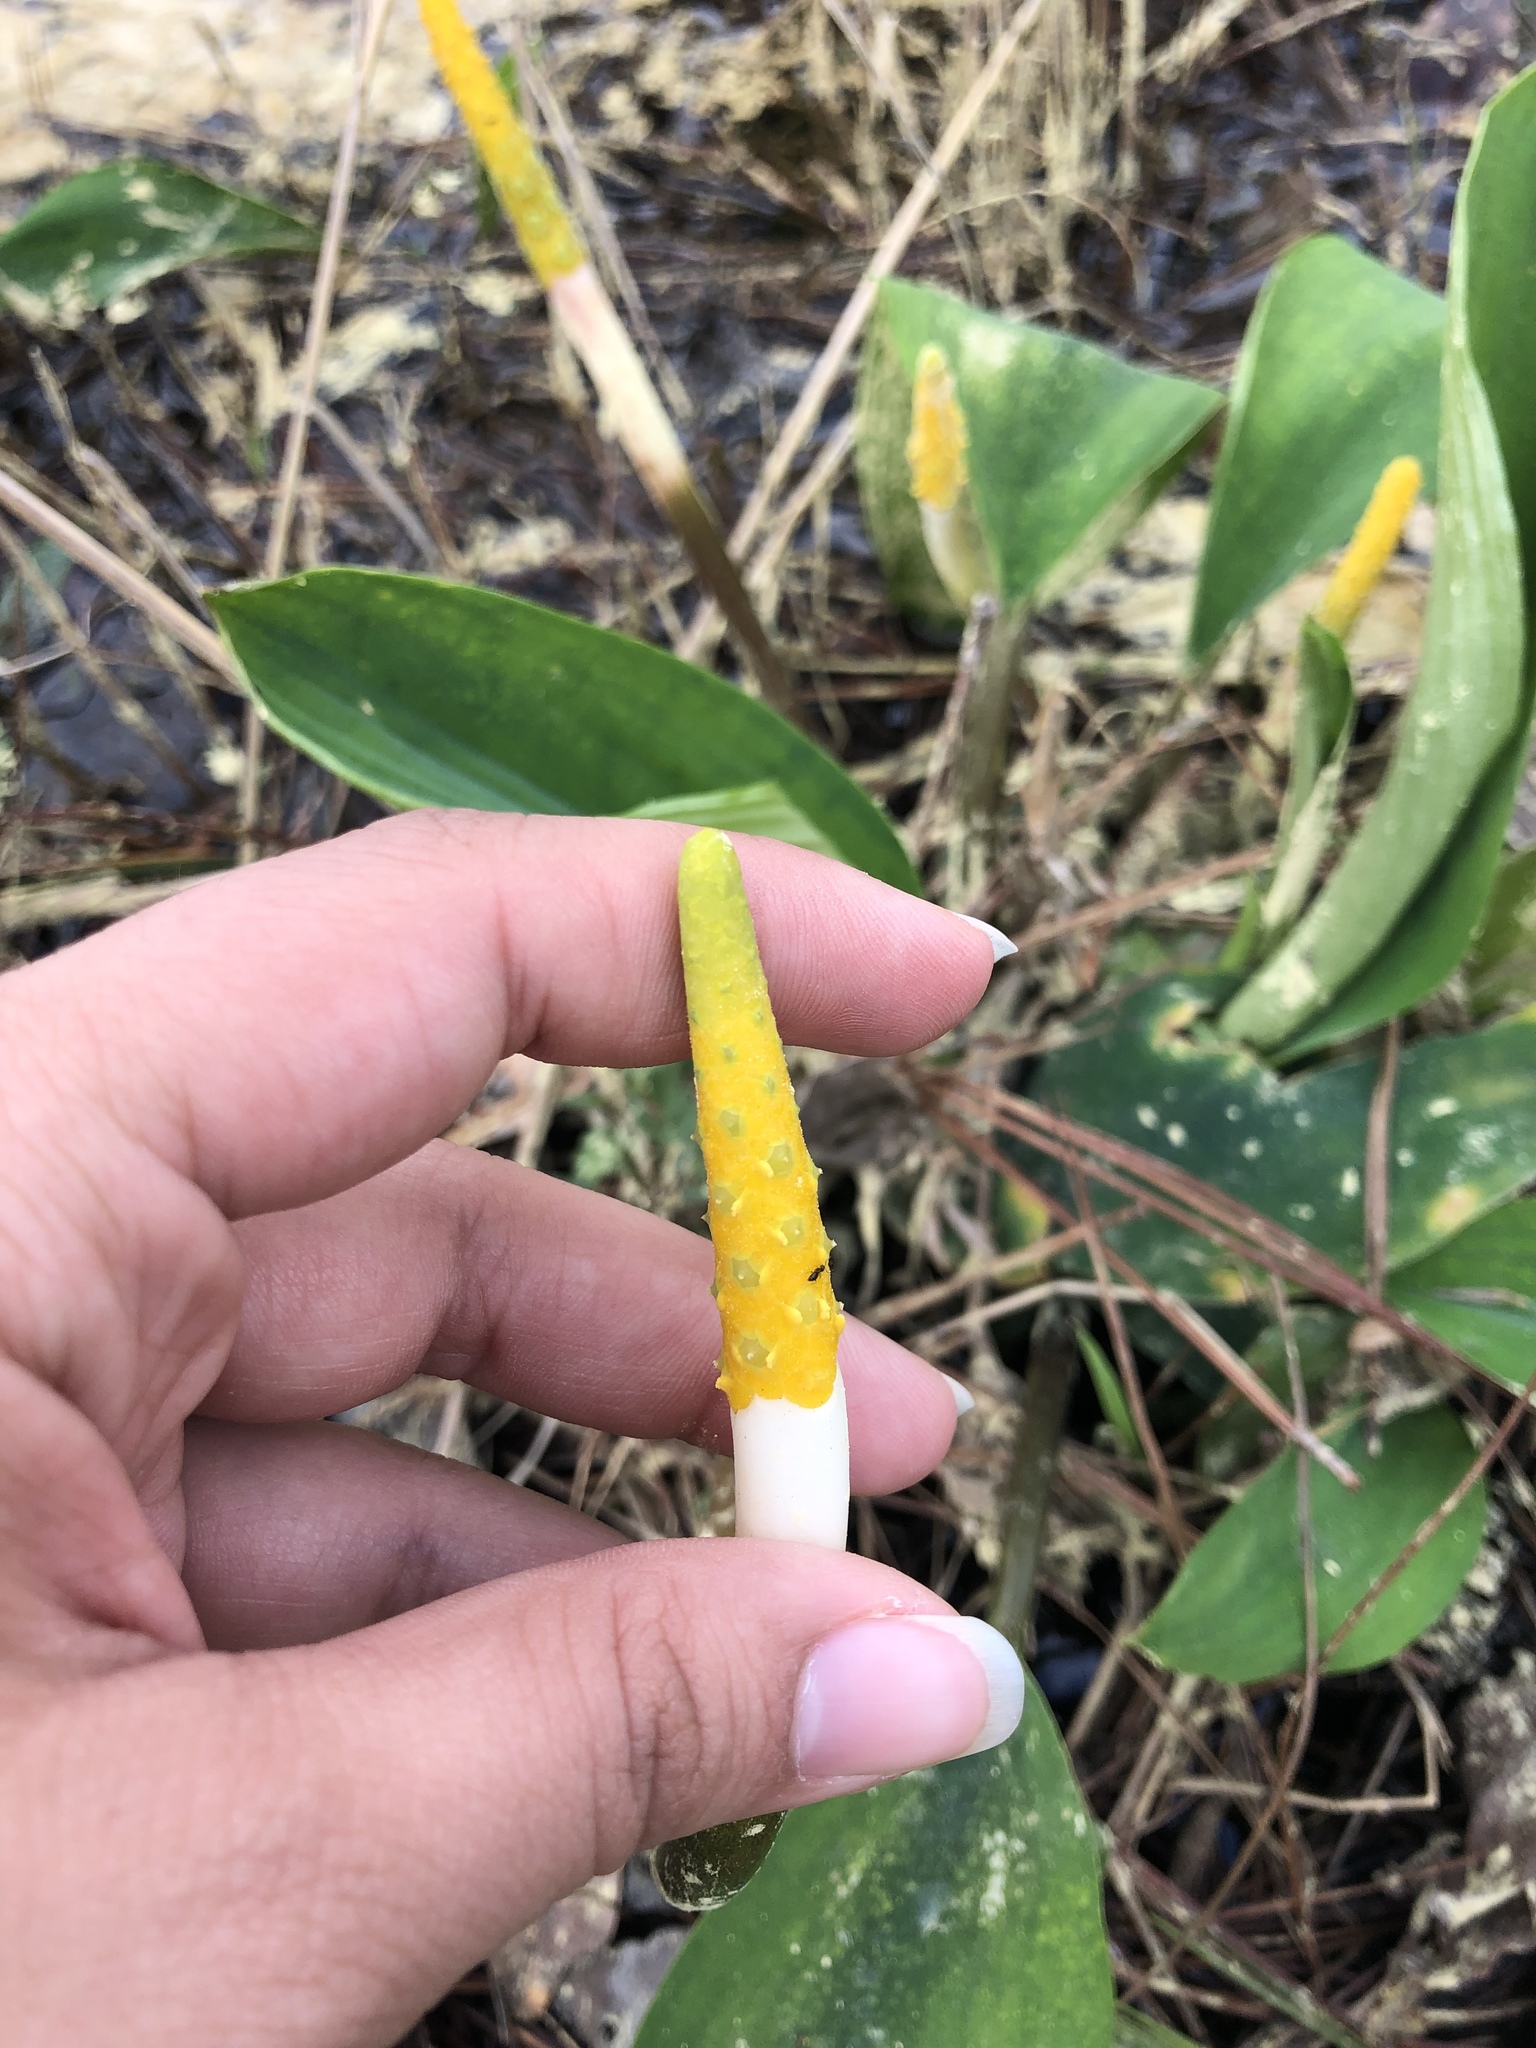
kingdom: Plantae
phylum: Tracheophyta
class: Liliopsida
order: Alismatales
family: Araceae
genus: Orontium
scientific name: Orontium aquaticum
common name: Golden-club
